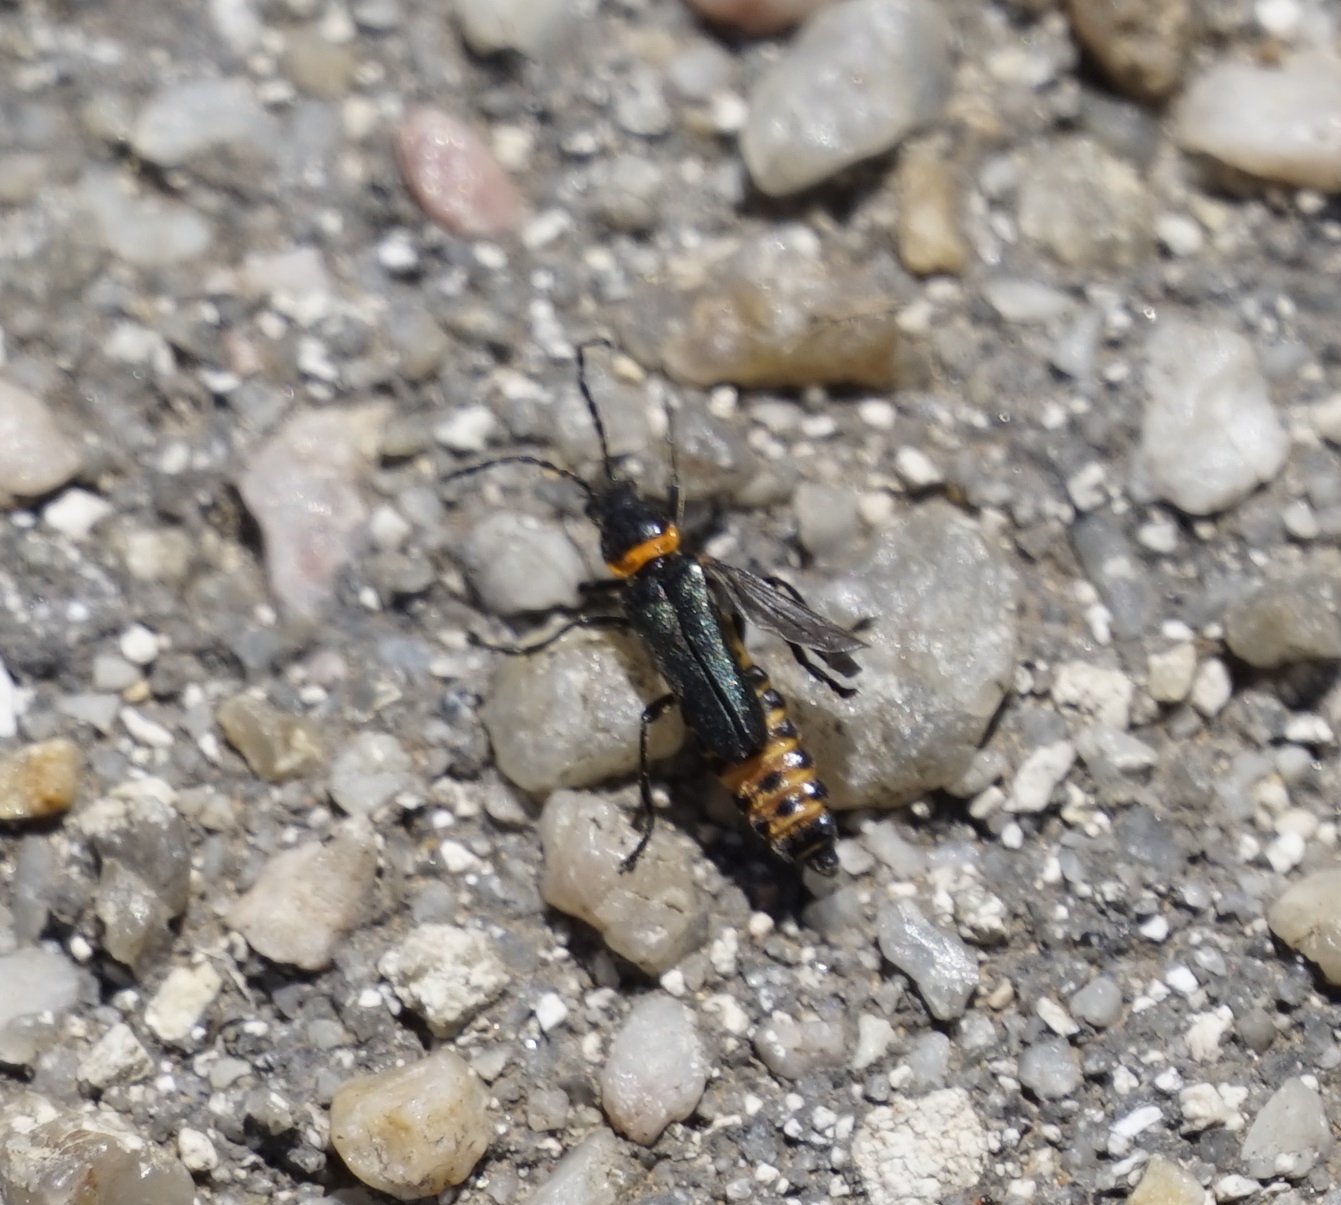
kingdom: Animalia
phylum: Arthropoda
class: Insecta
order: Coleoptera
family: Cantharidae
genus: Chauliognathus
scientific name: Chauliognathus
